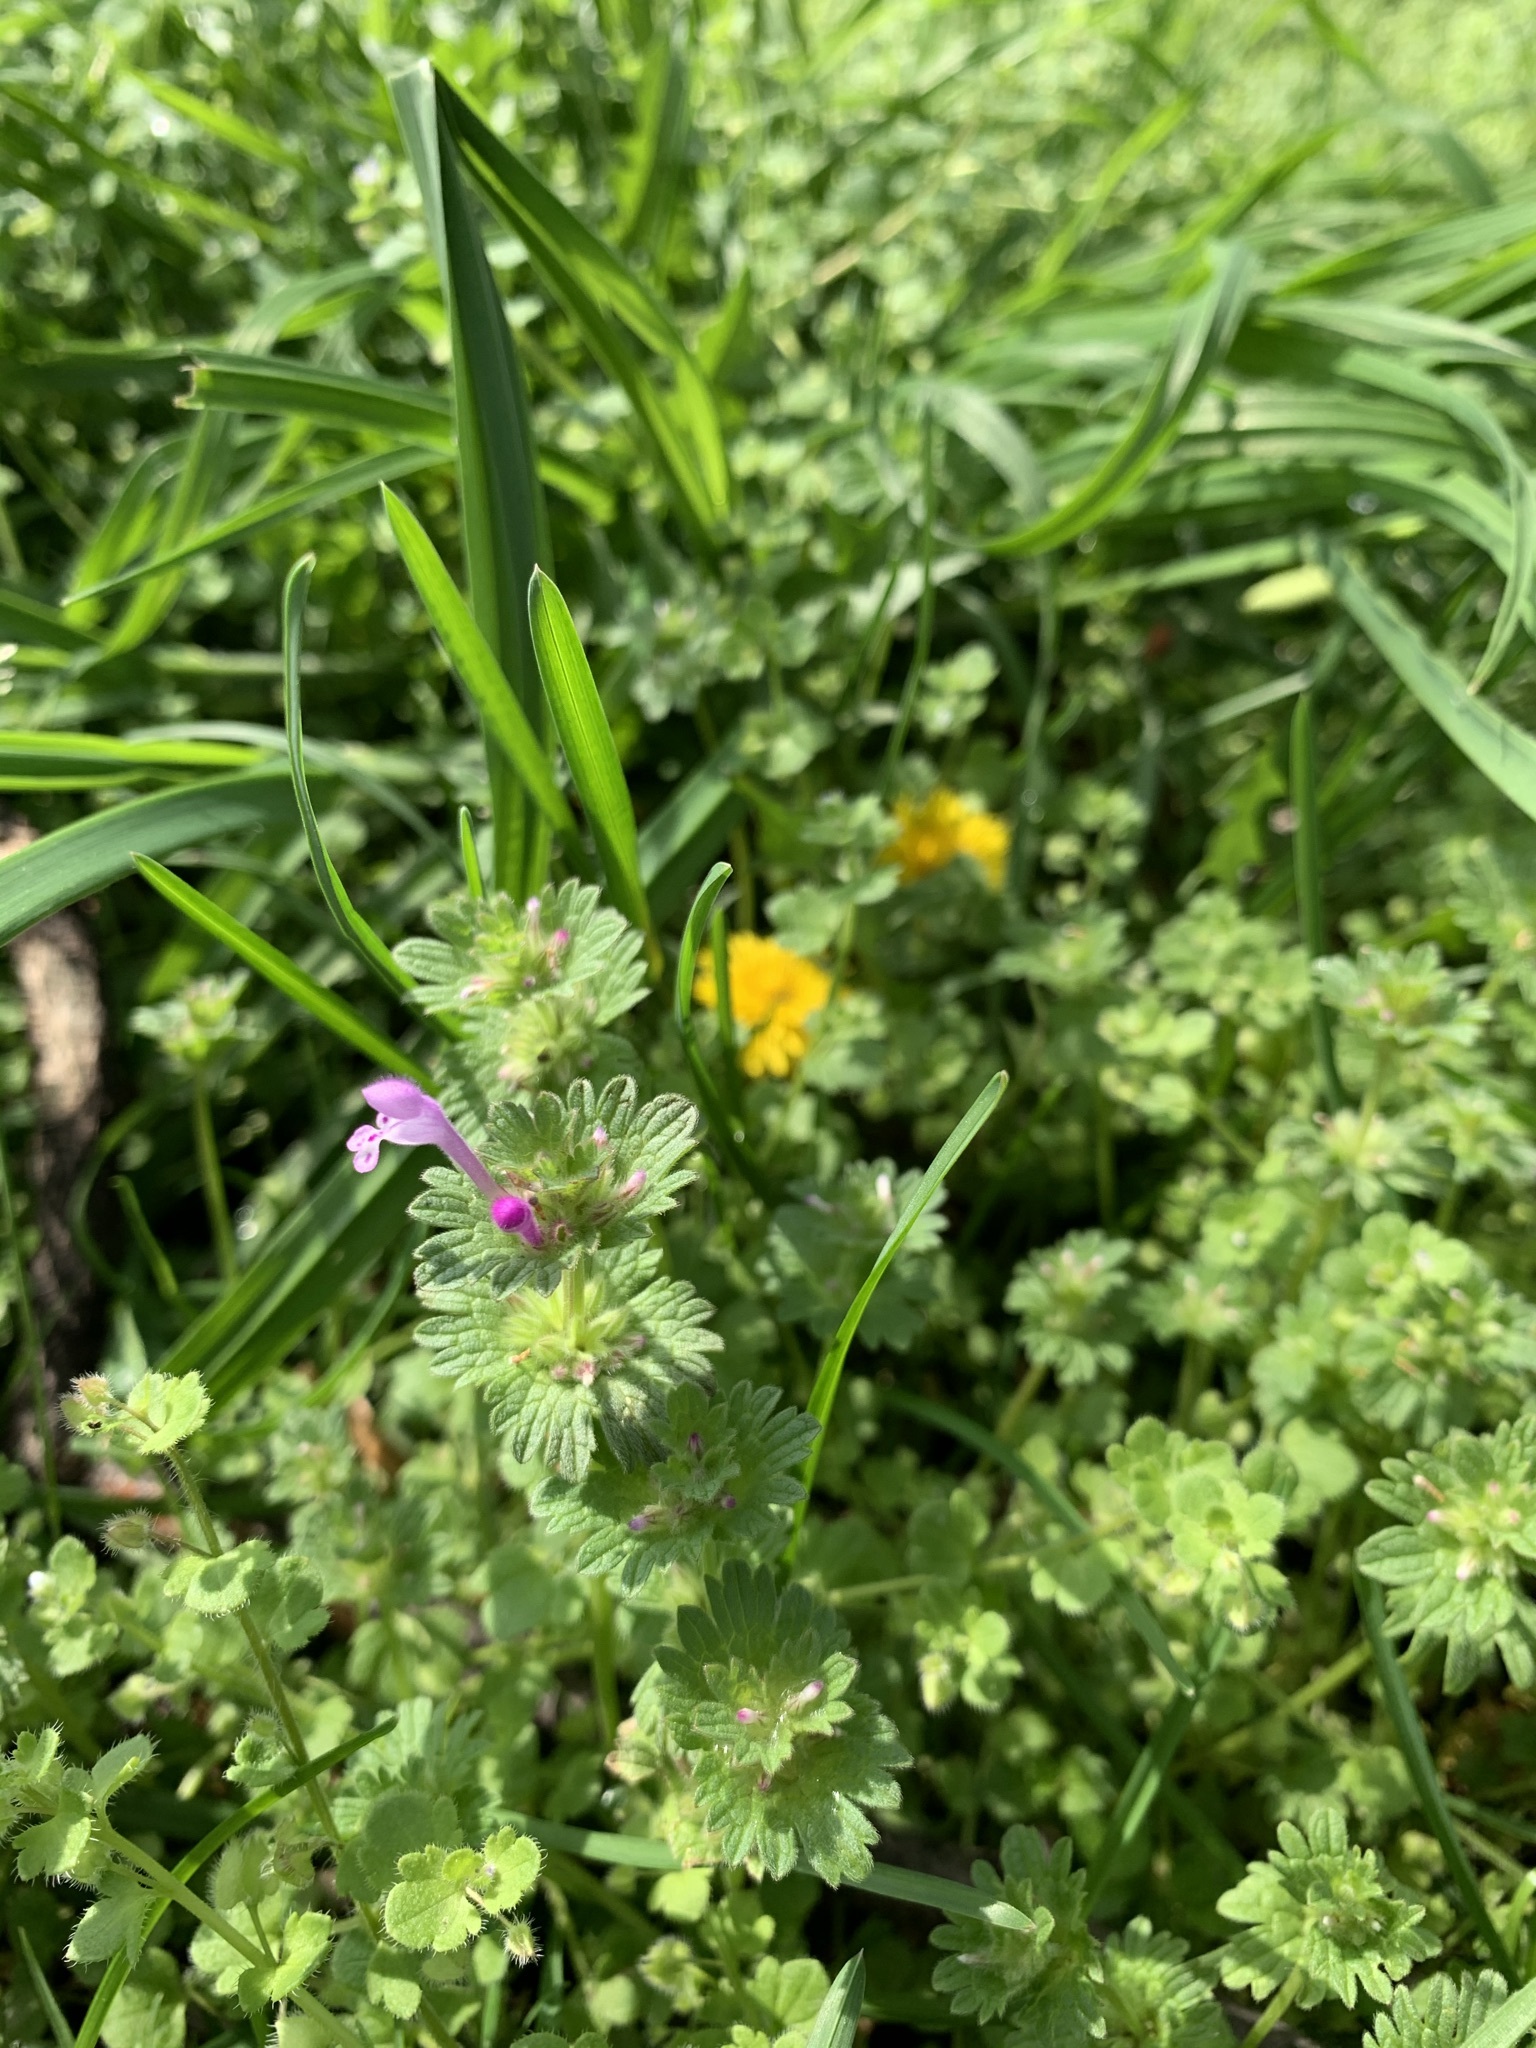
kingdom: Plantae
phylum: Tracheophyta
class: Magnoliopsida
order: Lamiales
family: Lamiaceae
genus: Lamium
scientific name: Lamium amplexicaule
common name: Henbit dead-nettle
